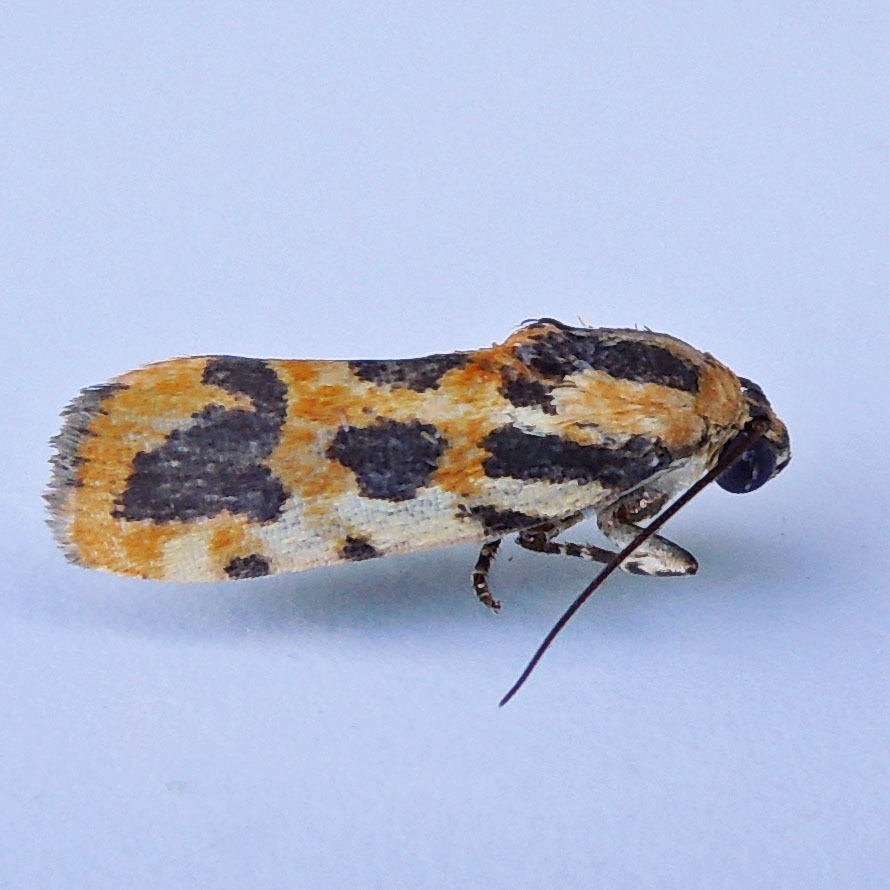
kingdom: Animalia
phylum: Arthropoda
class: Insecta
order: Lepidoptera
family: Noctuidae
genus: Acontia
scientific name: Acontia leo
